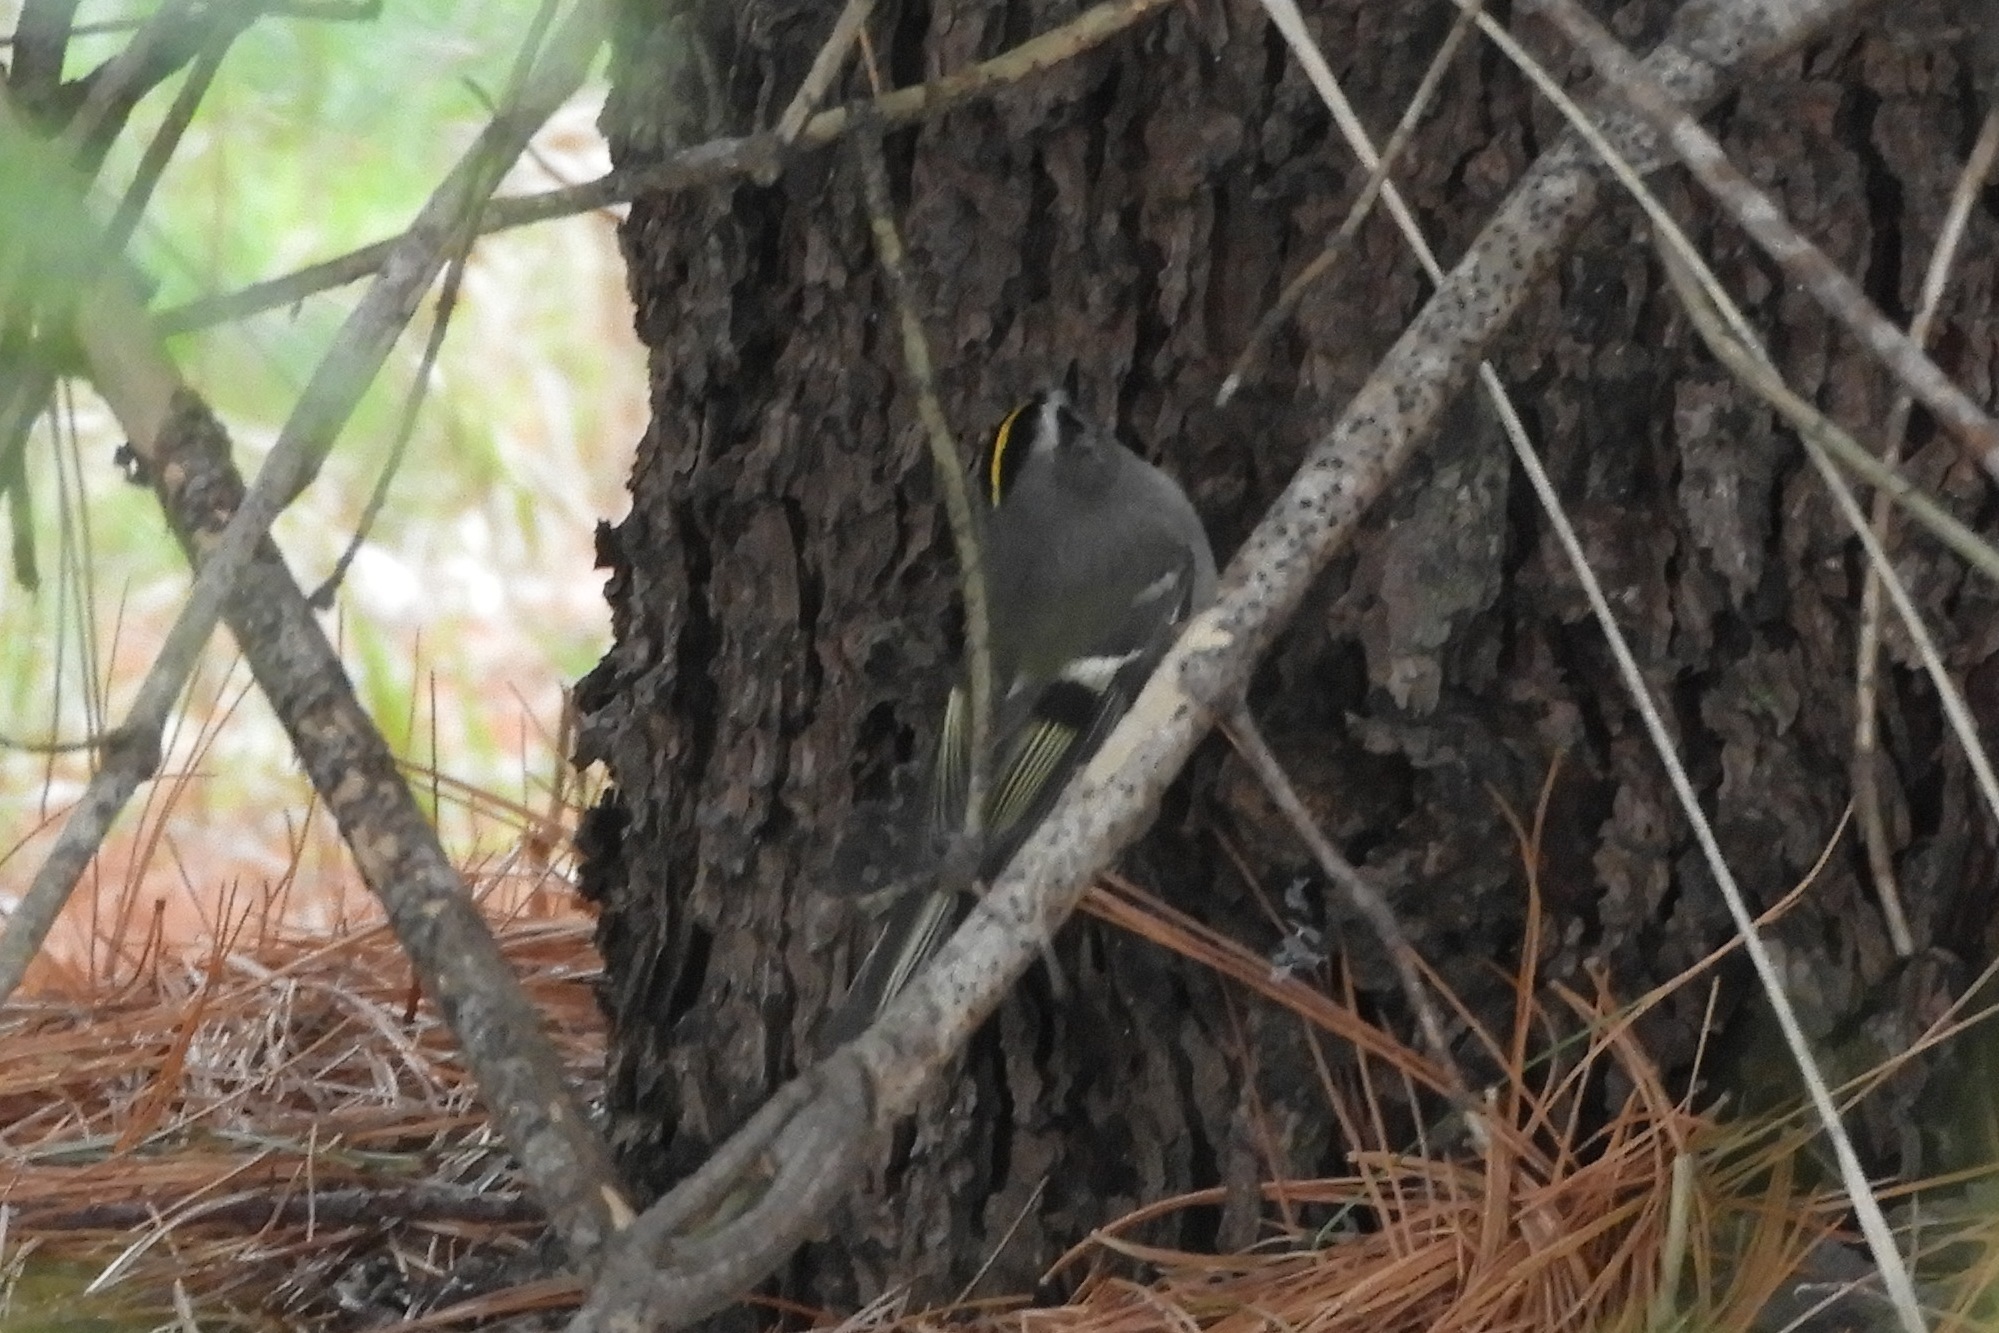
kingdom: Animalia
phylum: Chordata
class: Aves
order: Passeriformes
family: Regulidae
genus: Regulus
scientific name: Regulus satrapa
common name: Golden-crowned kinglet
